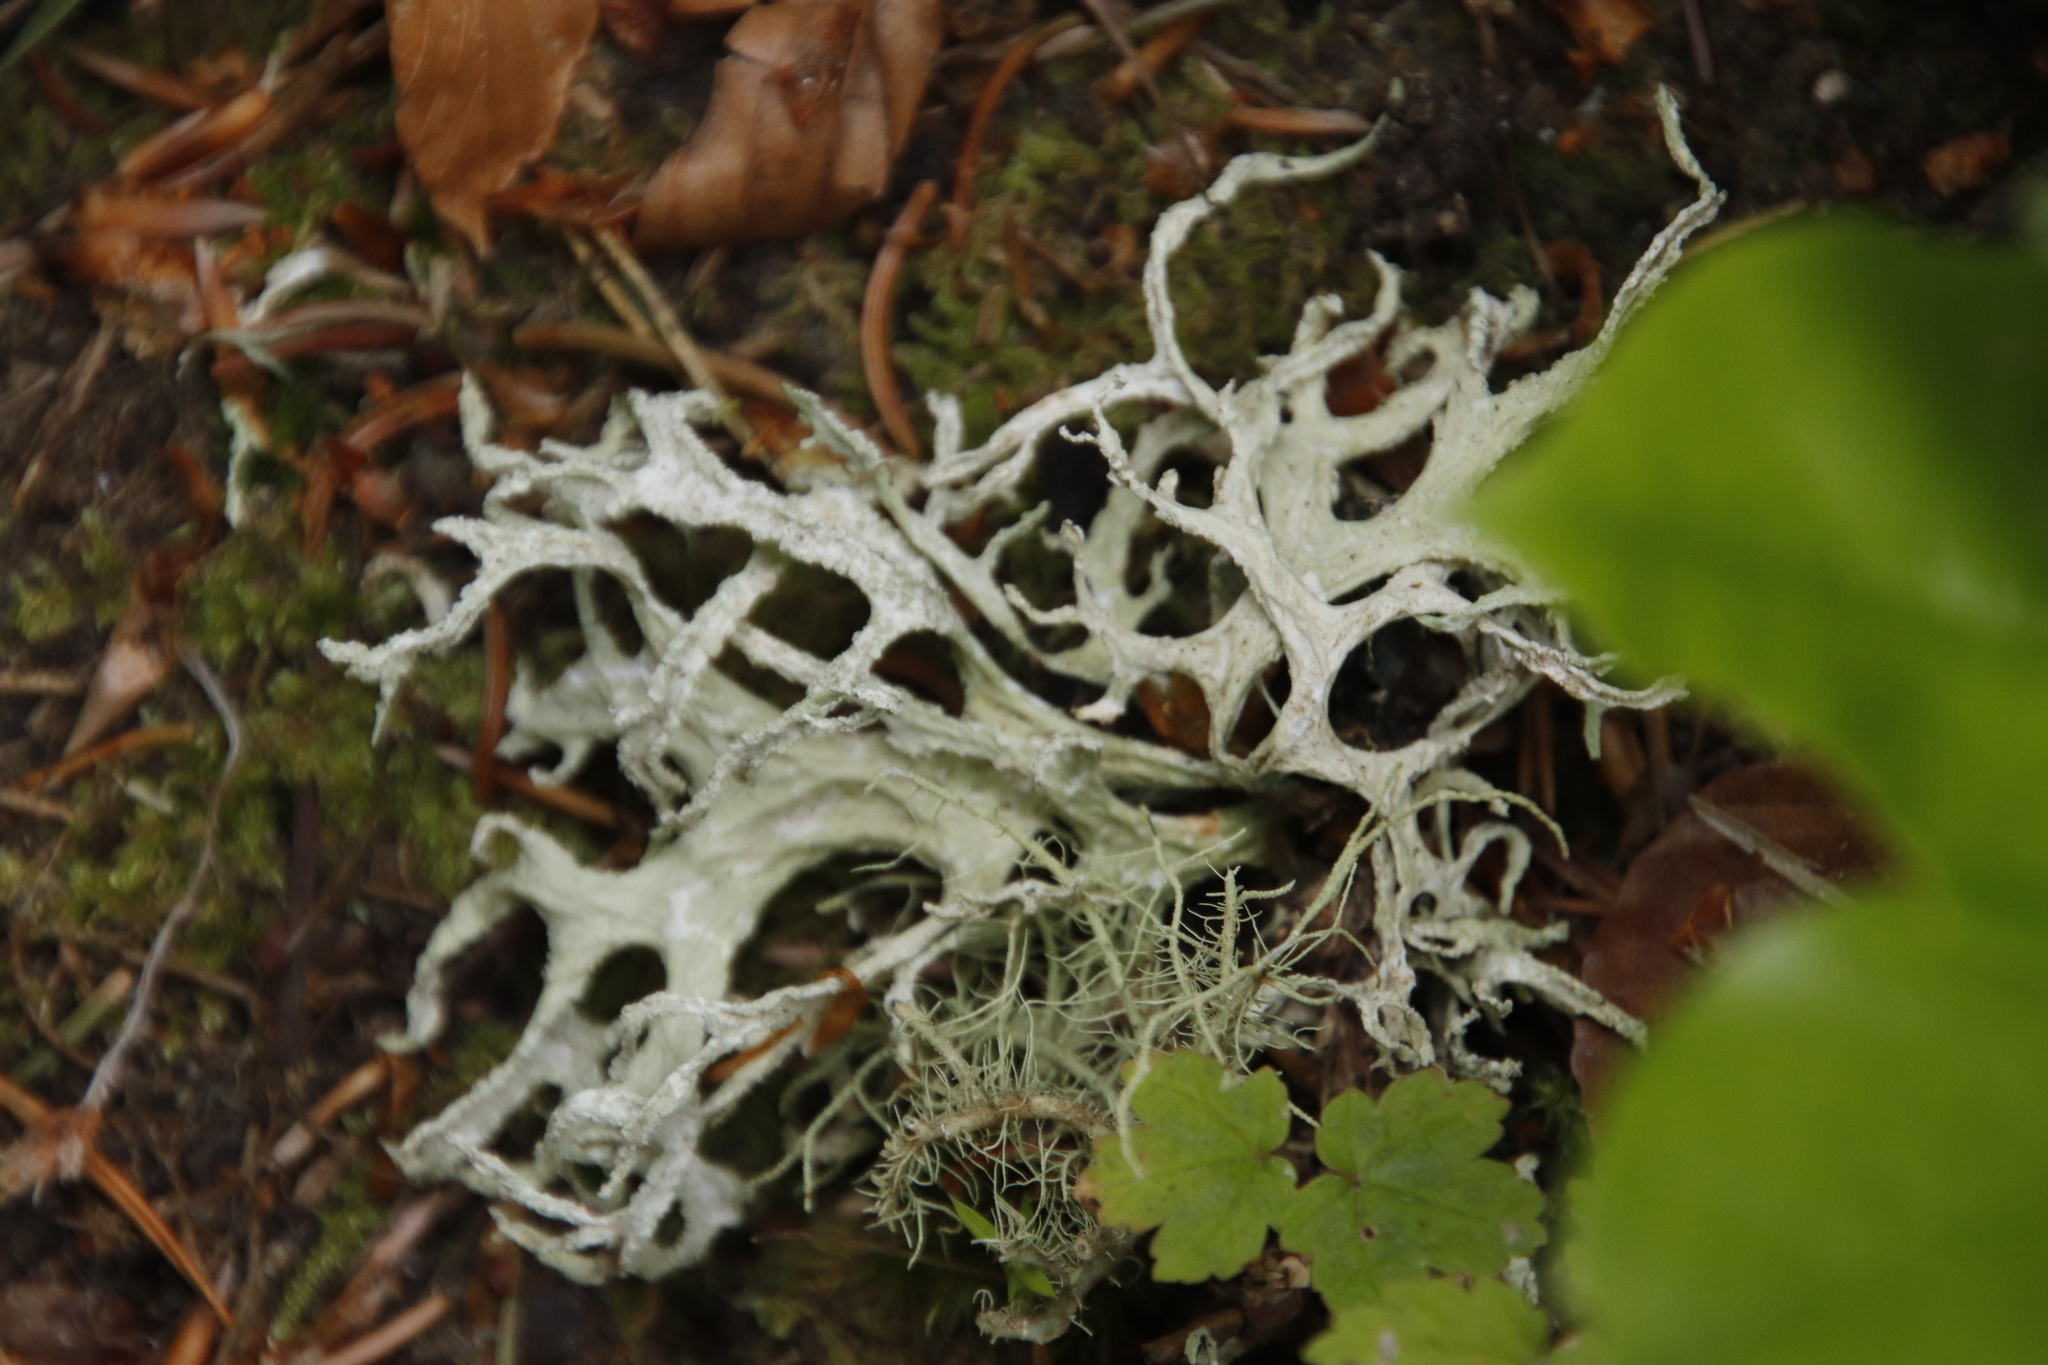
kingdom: Fungi
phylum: Ascomycota
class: Lecanoromycetes
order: Lecanorales
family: Parmeliaceae
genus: Evernia
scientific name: Evernia prunastri
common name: Oak moss
